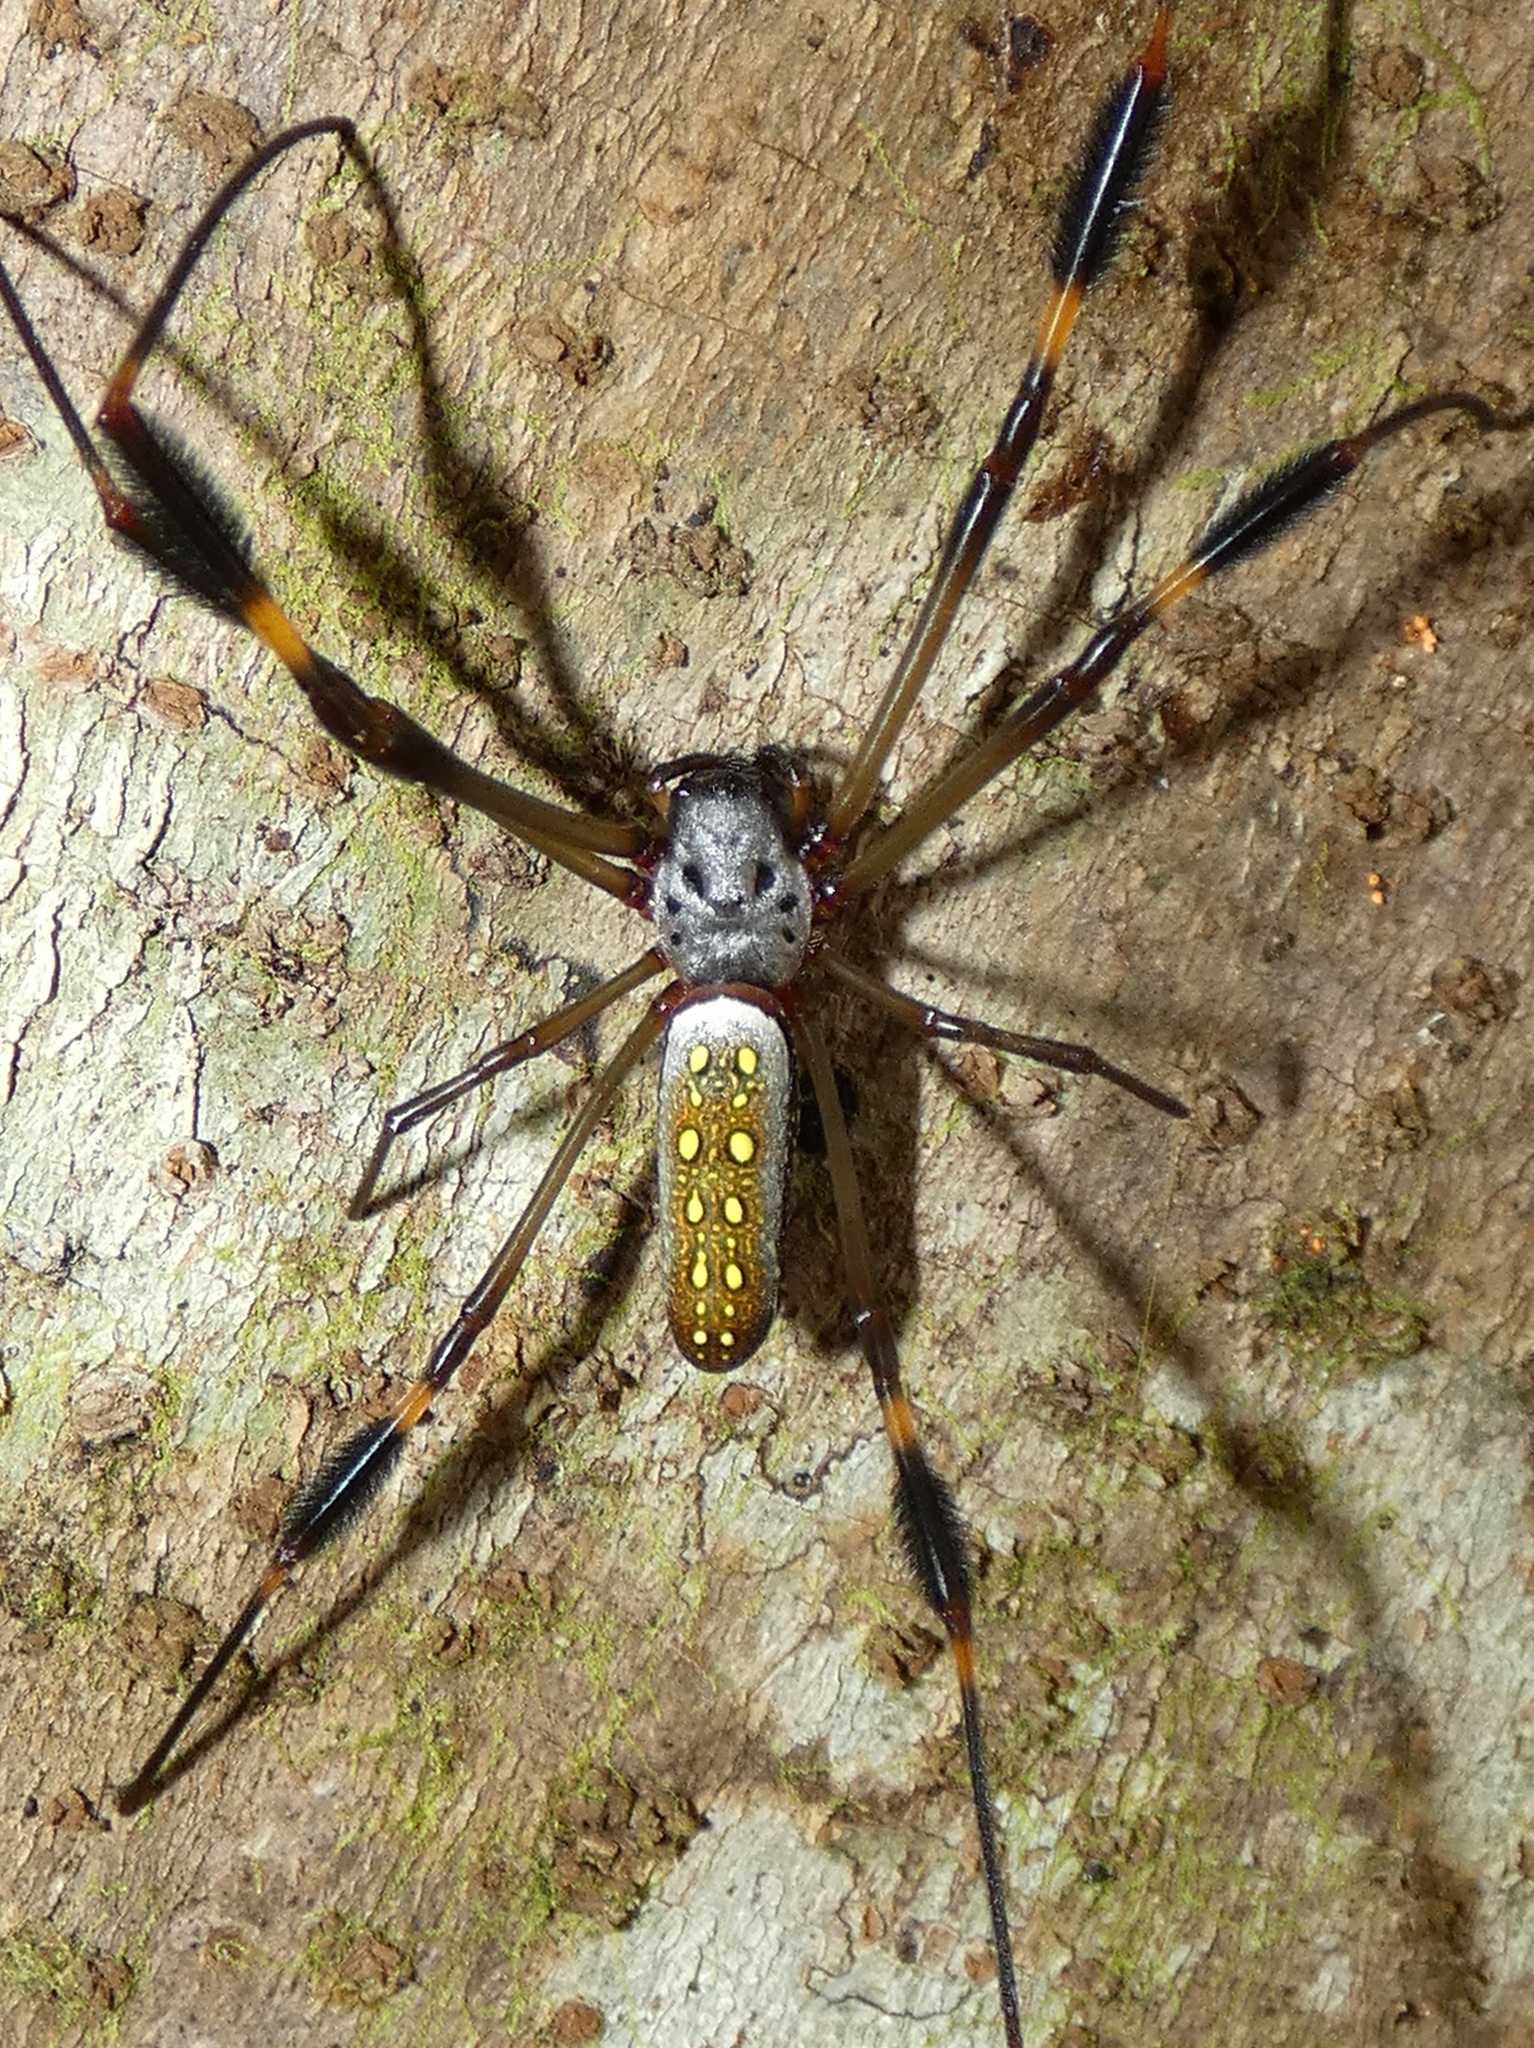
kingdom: Animalia
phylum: Arthropoda
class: Arachnida
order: Araneae
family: Araneidae
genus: Trichonephila
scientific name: Trichonephila clavipes
